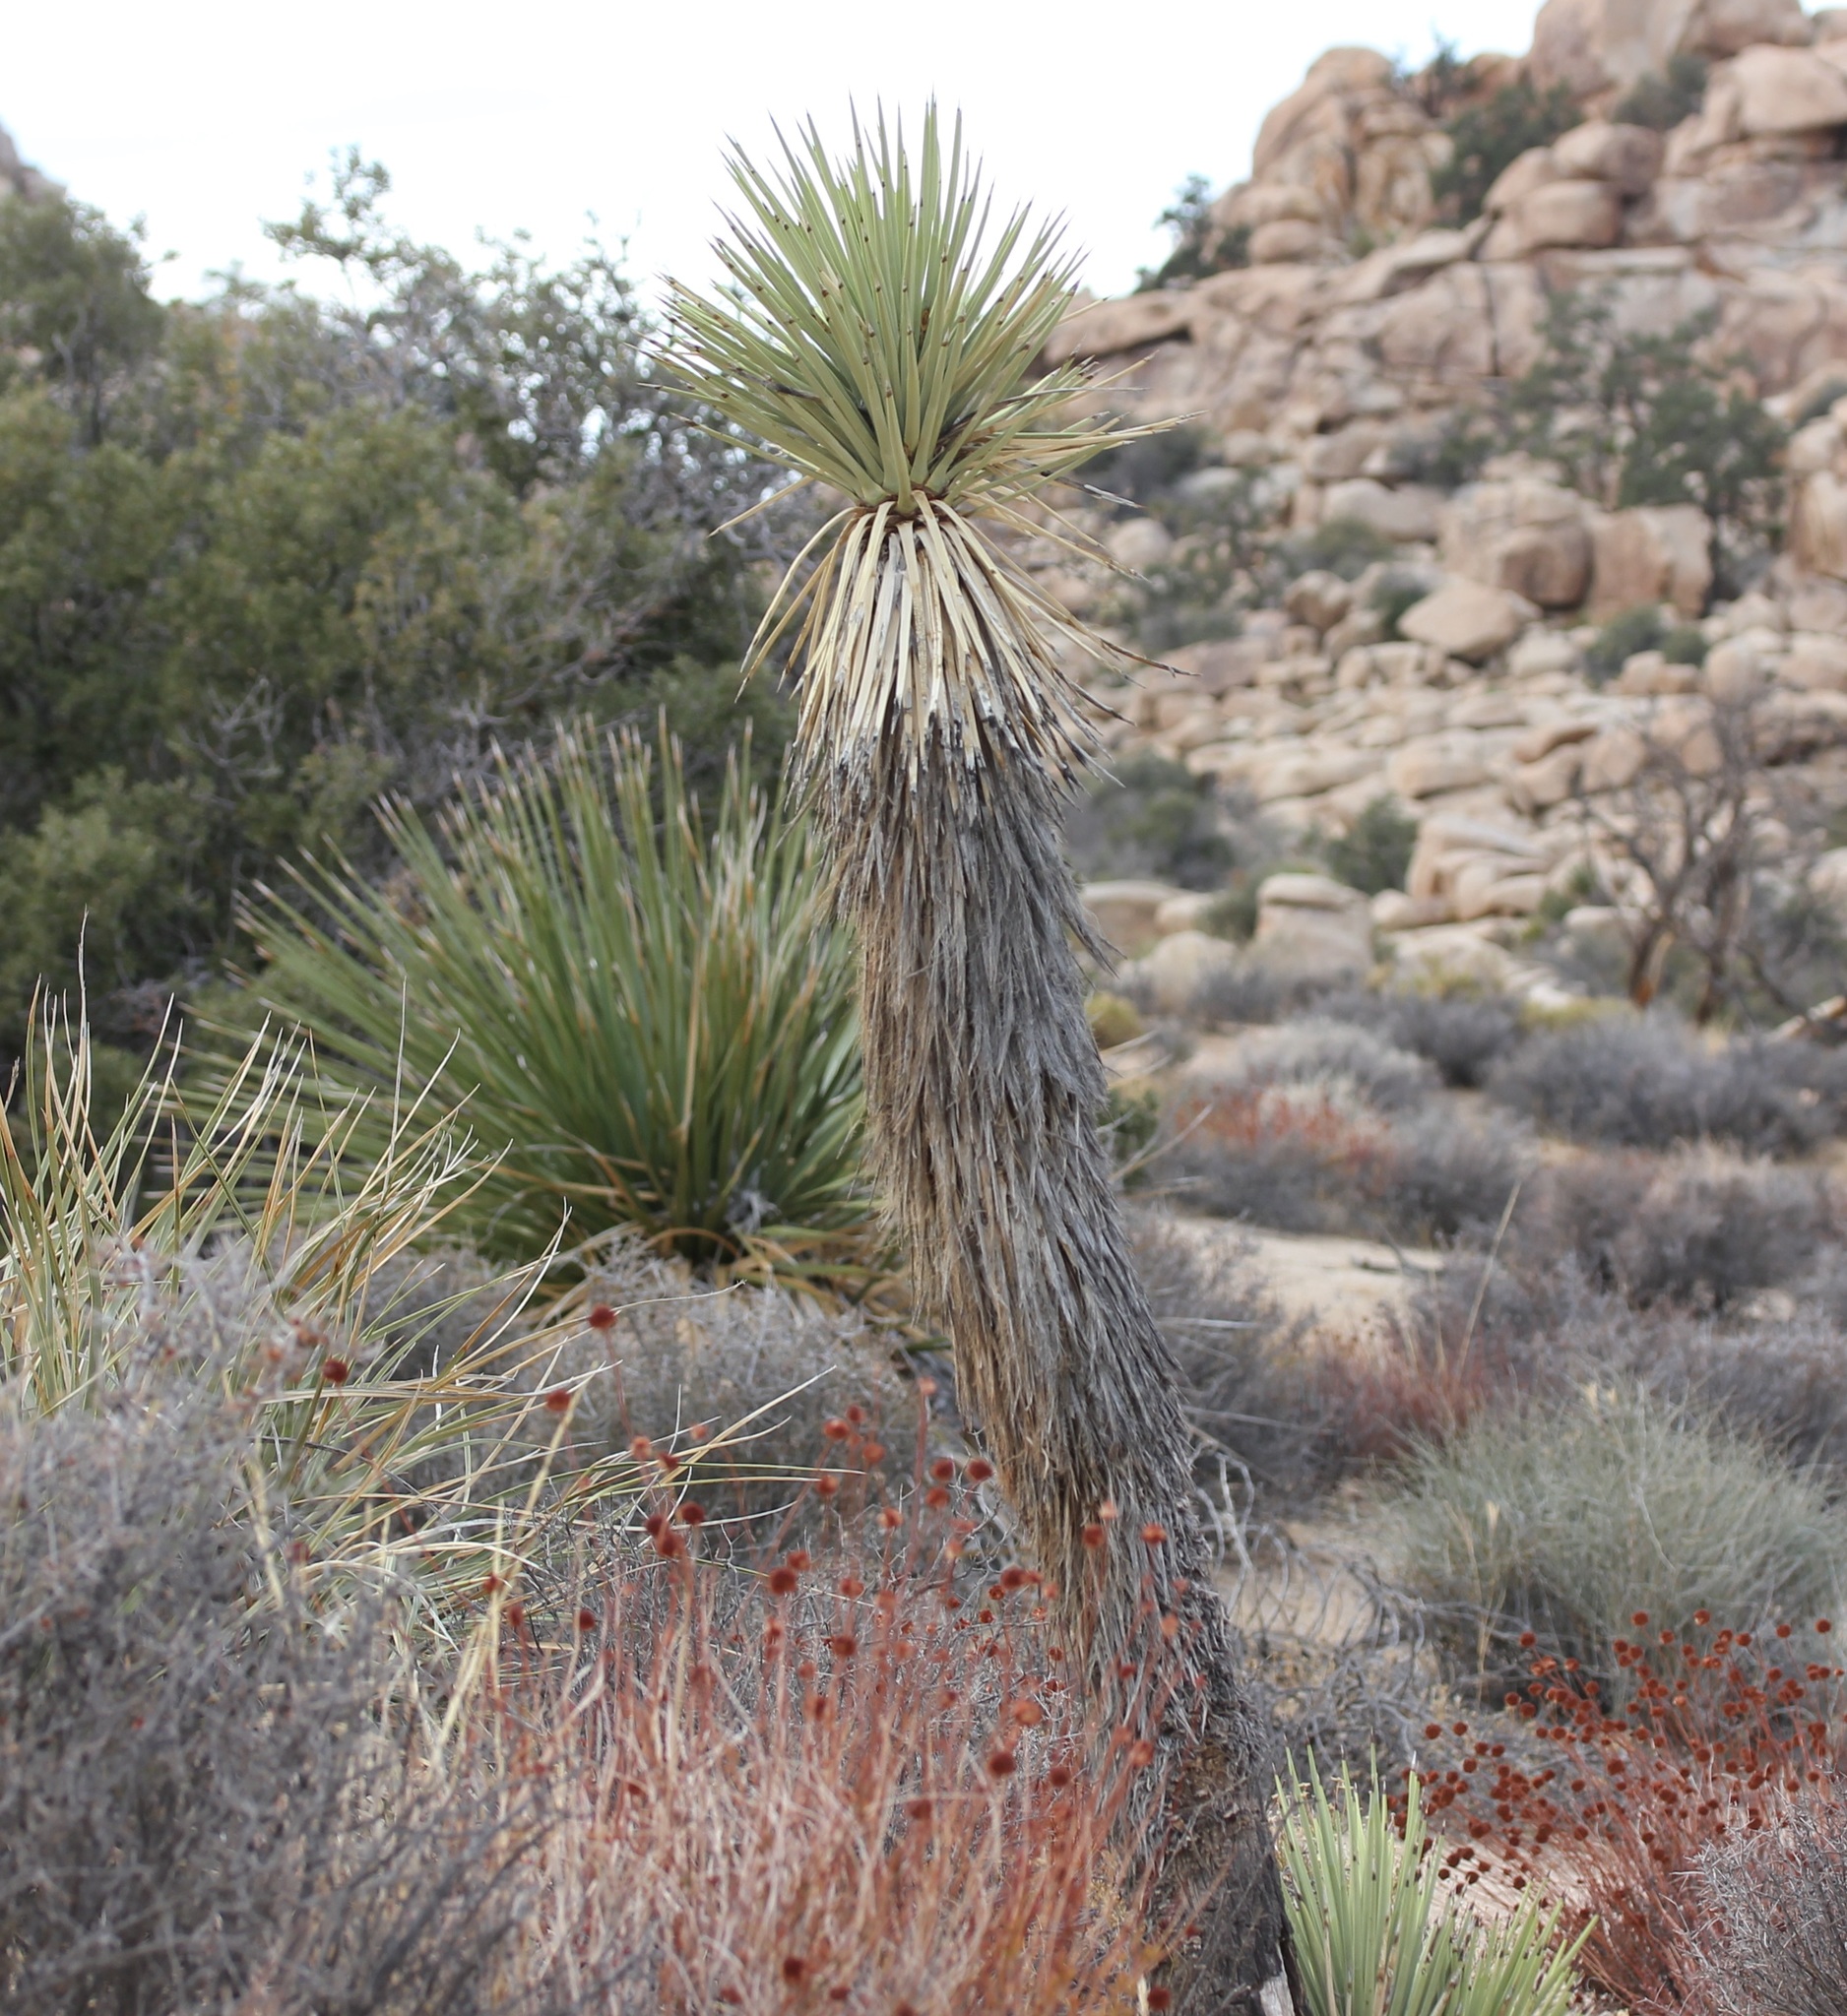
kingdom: Plantae
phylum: Tracheophyta
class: Liliopsida
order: Asparagales
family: Asparagaceae
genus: Yucca
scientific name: Yucca brevifolia
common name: Joshua tree
